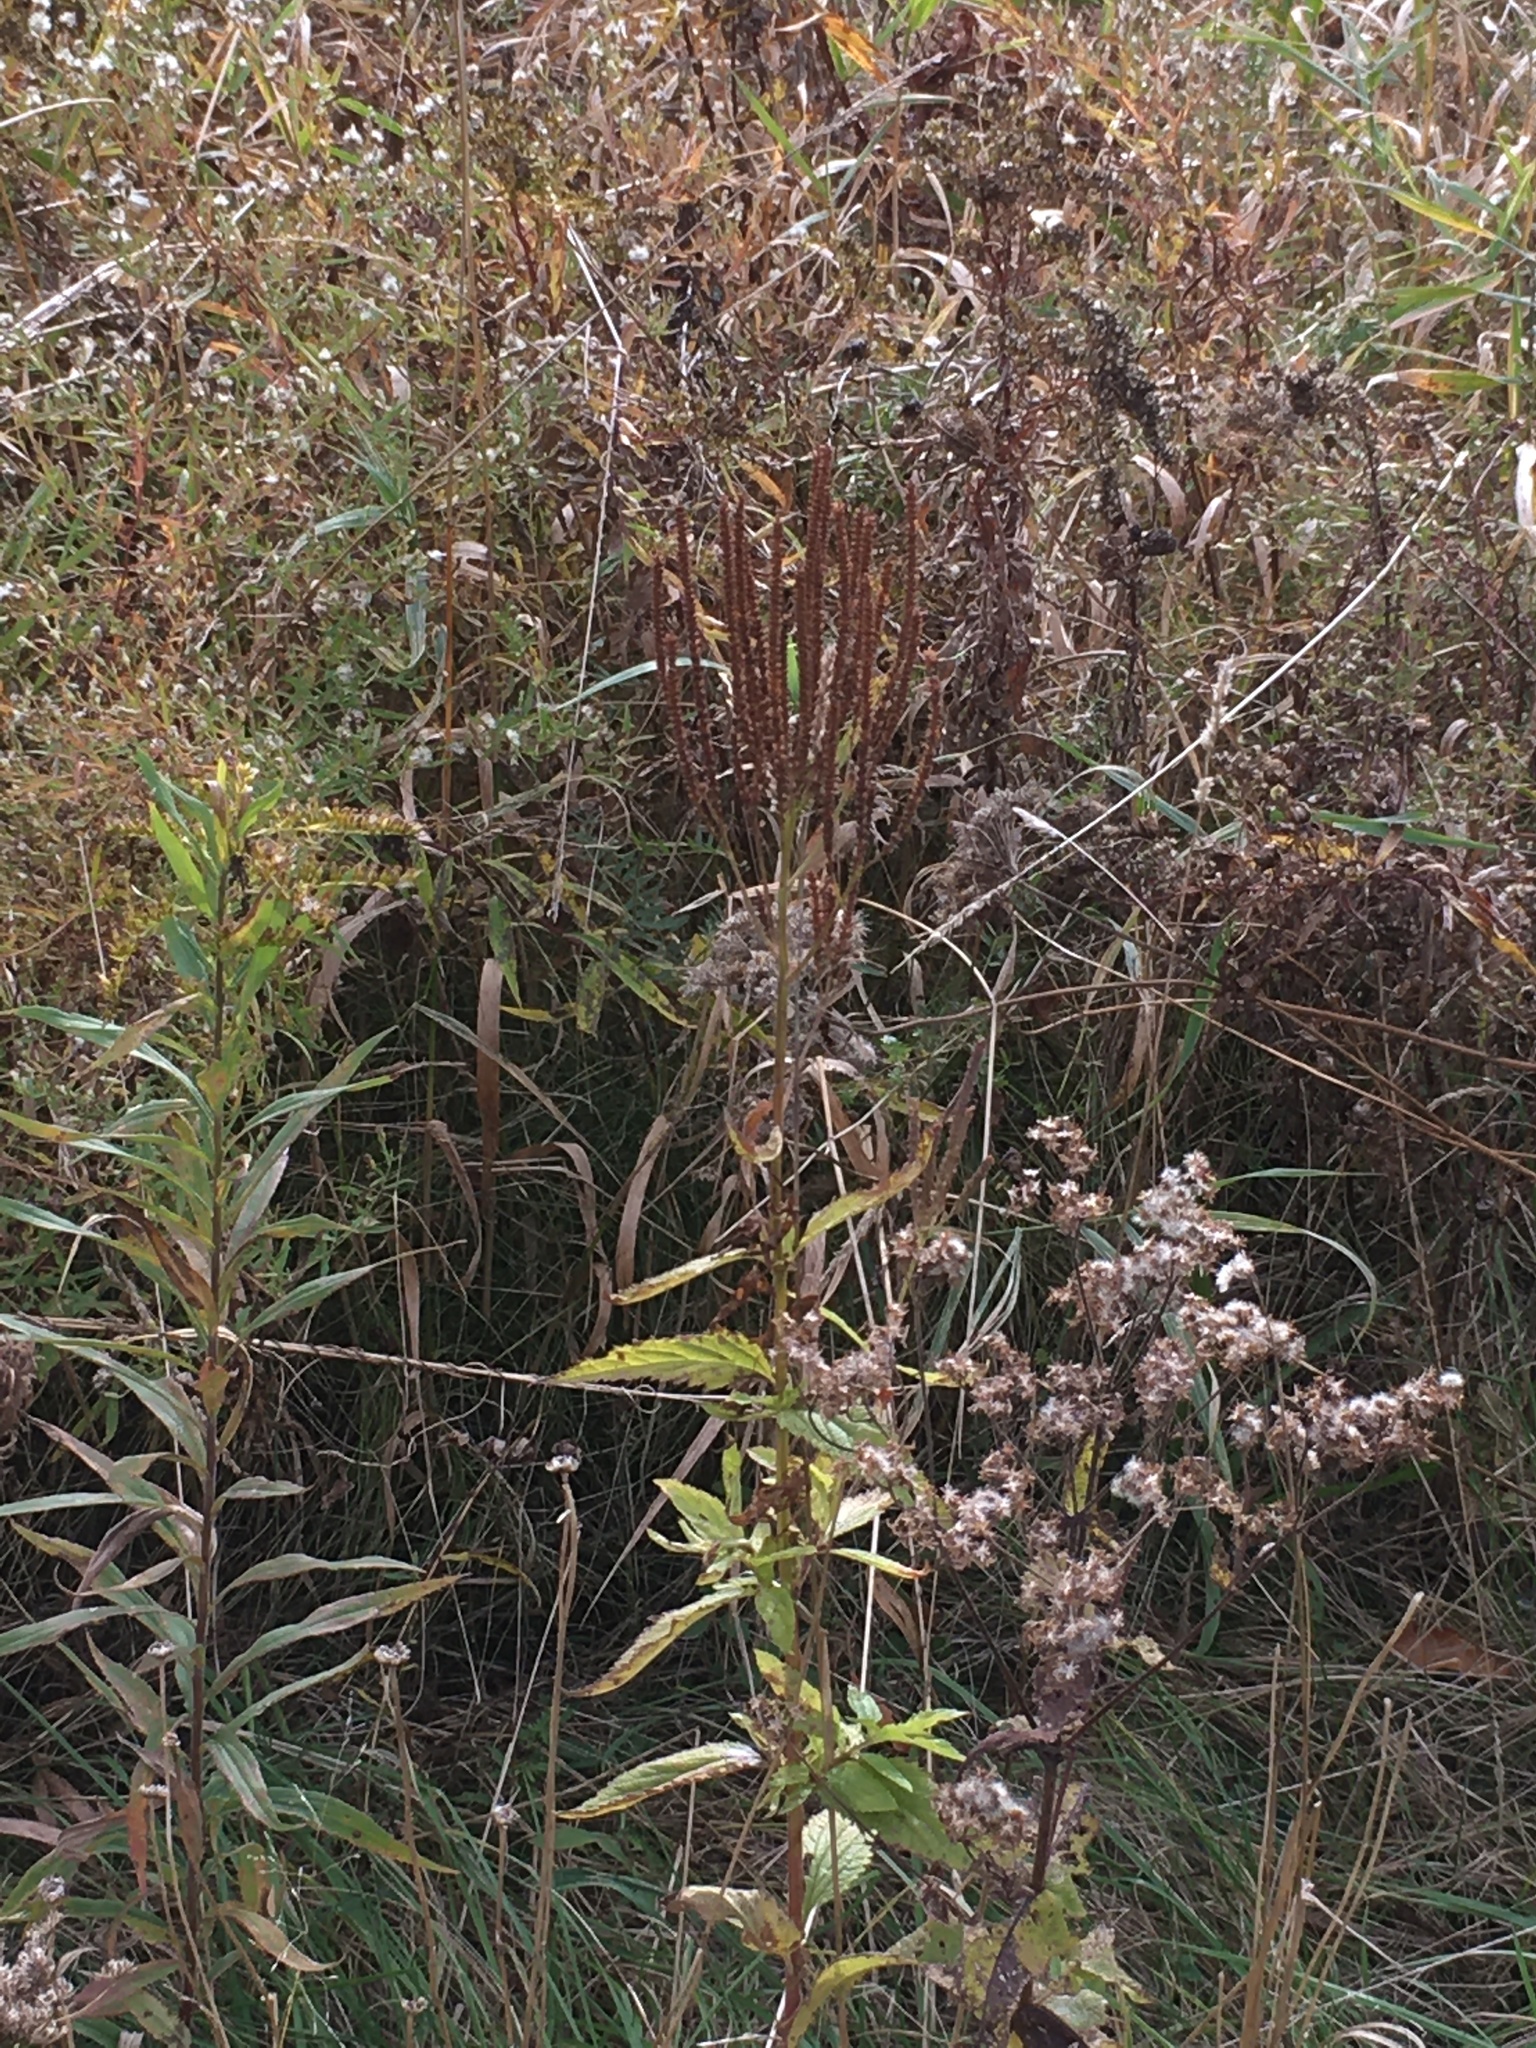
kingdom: Plantae
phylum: Tracheophyta
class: Magnoliopsida
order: Lamiales
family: Verbenaceae
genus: Verbena
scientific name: Verbena hastata
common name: American blue vervain
